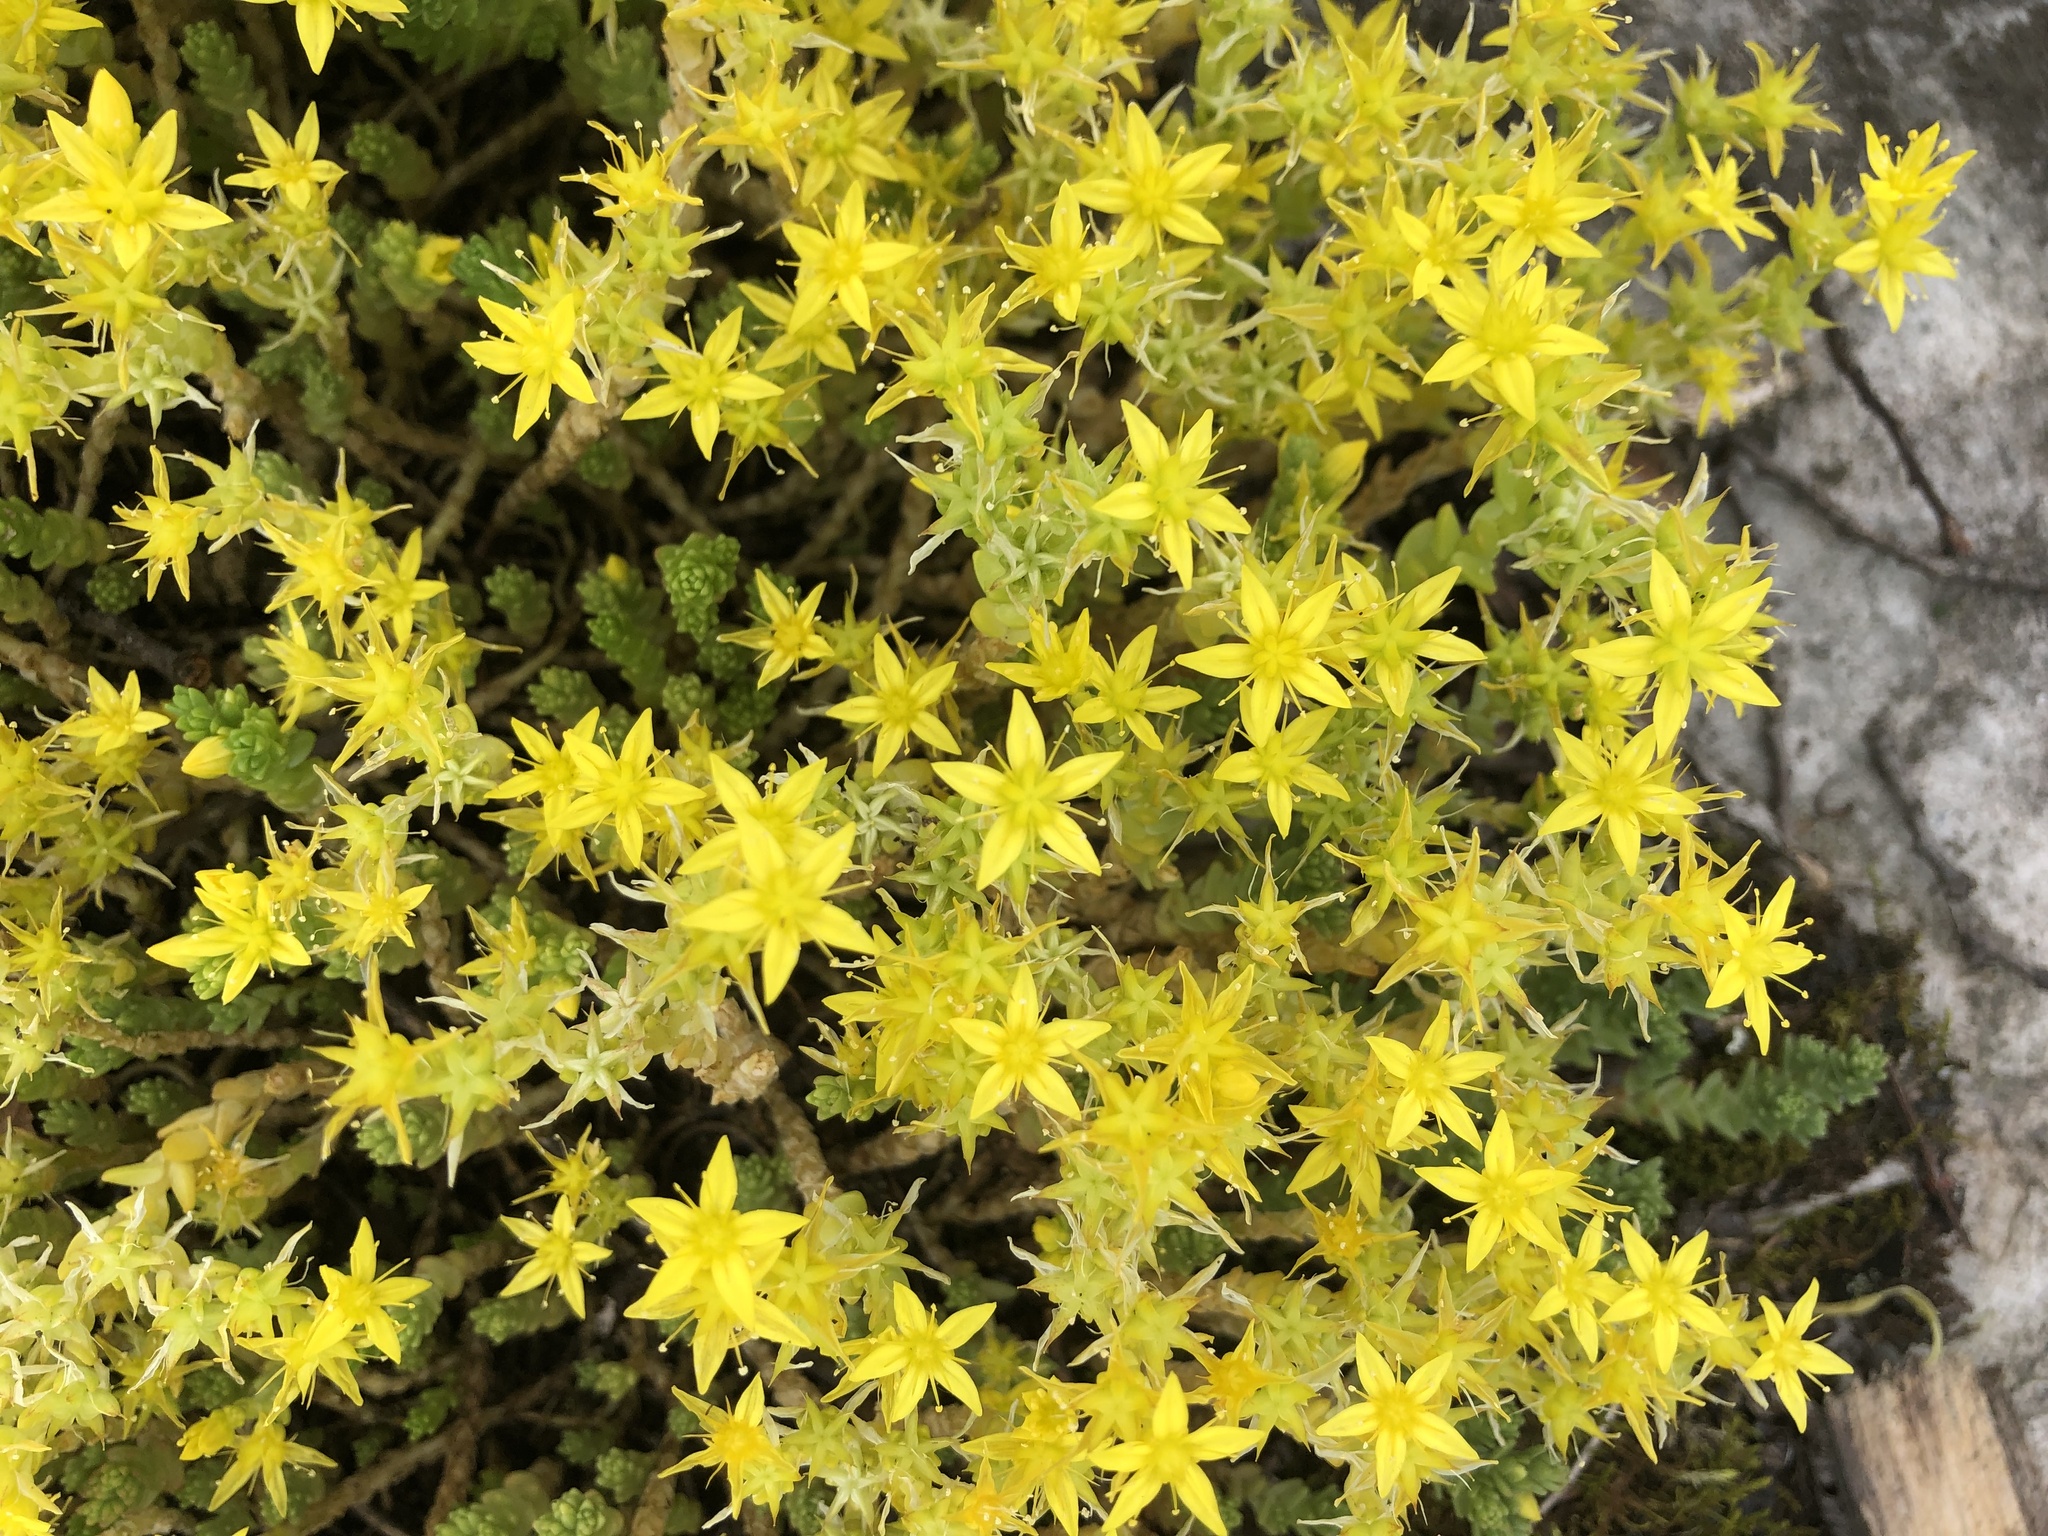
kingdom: Plantae
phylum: Tracheophyta
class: Magnoliopsida
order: Saxifragales
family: Crassulaceae
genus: Sedum
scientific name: Sedum acre
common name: Biting stonecrop
